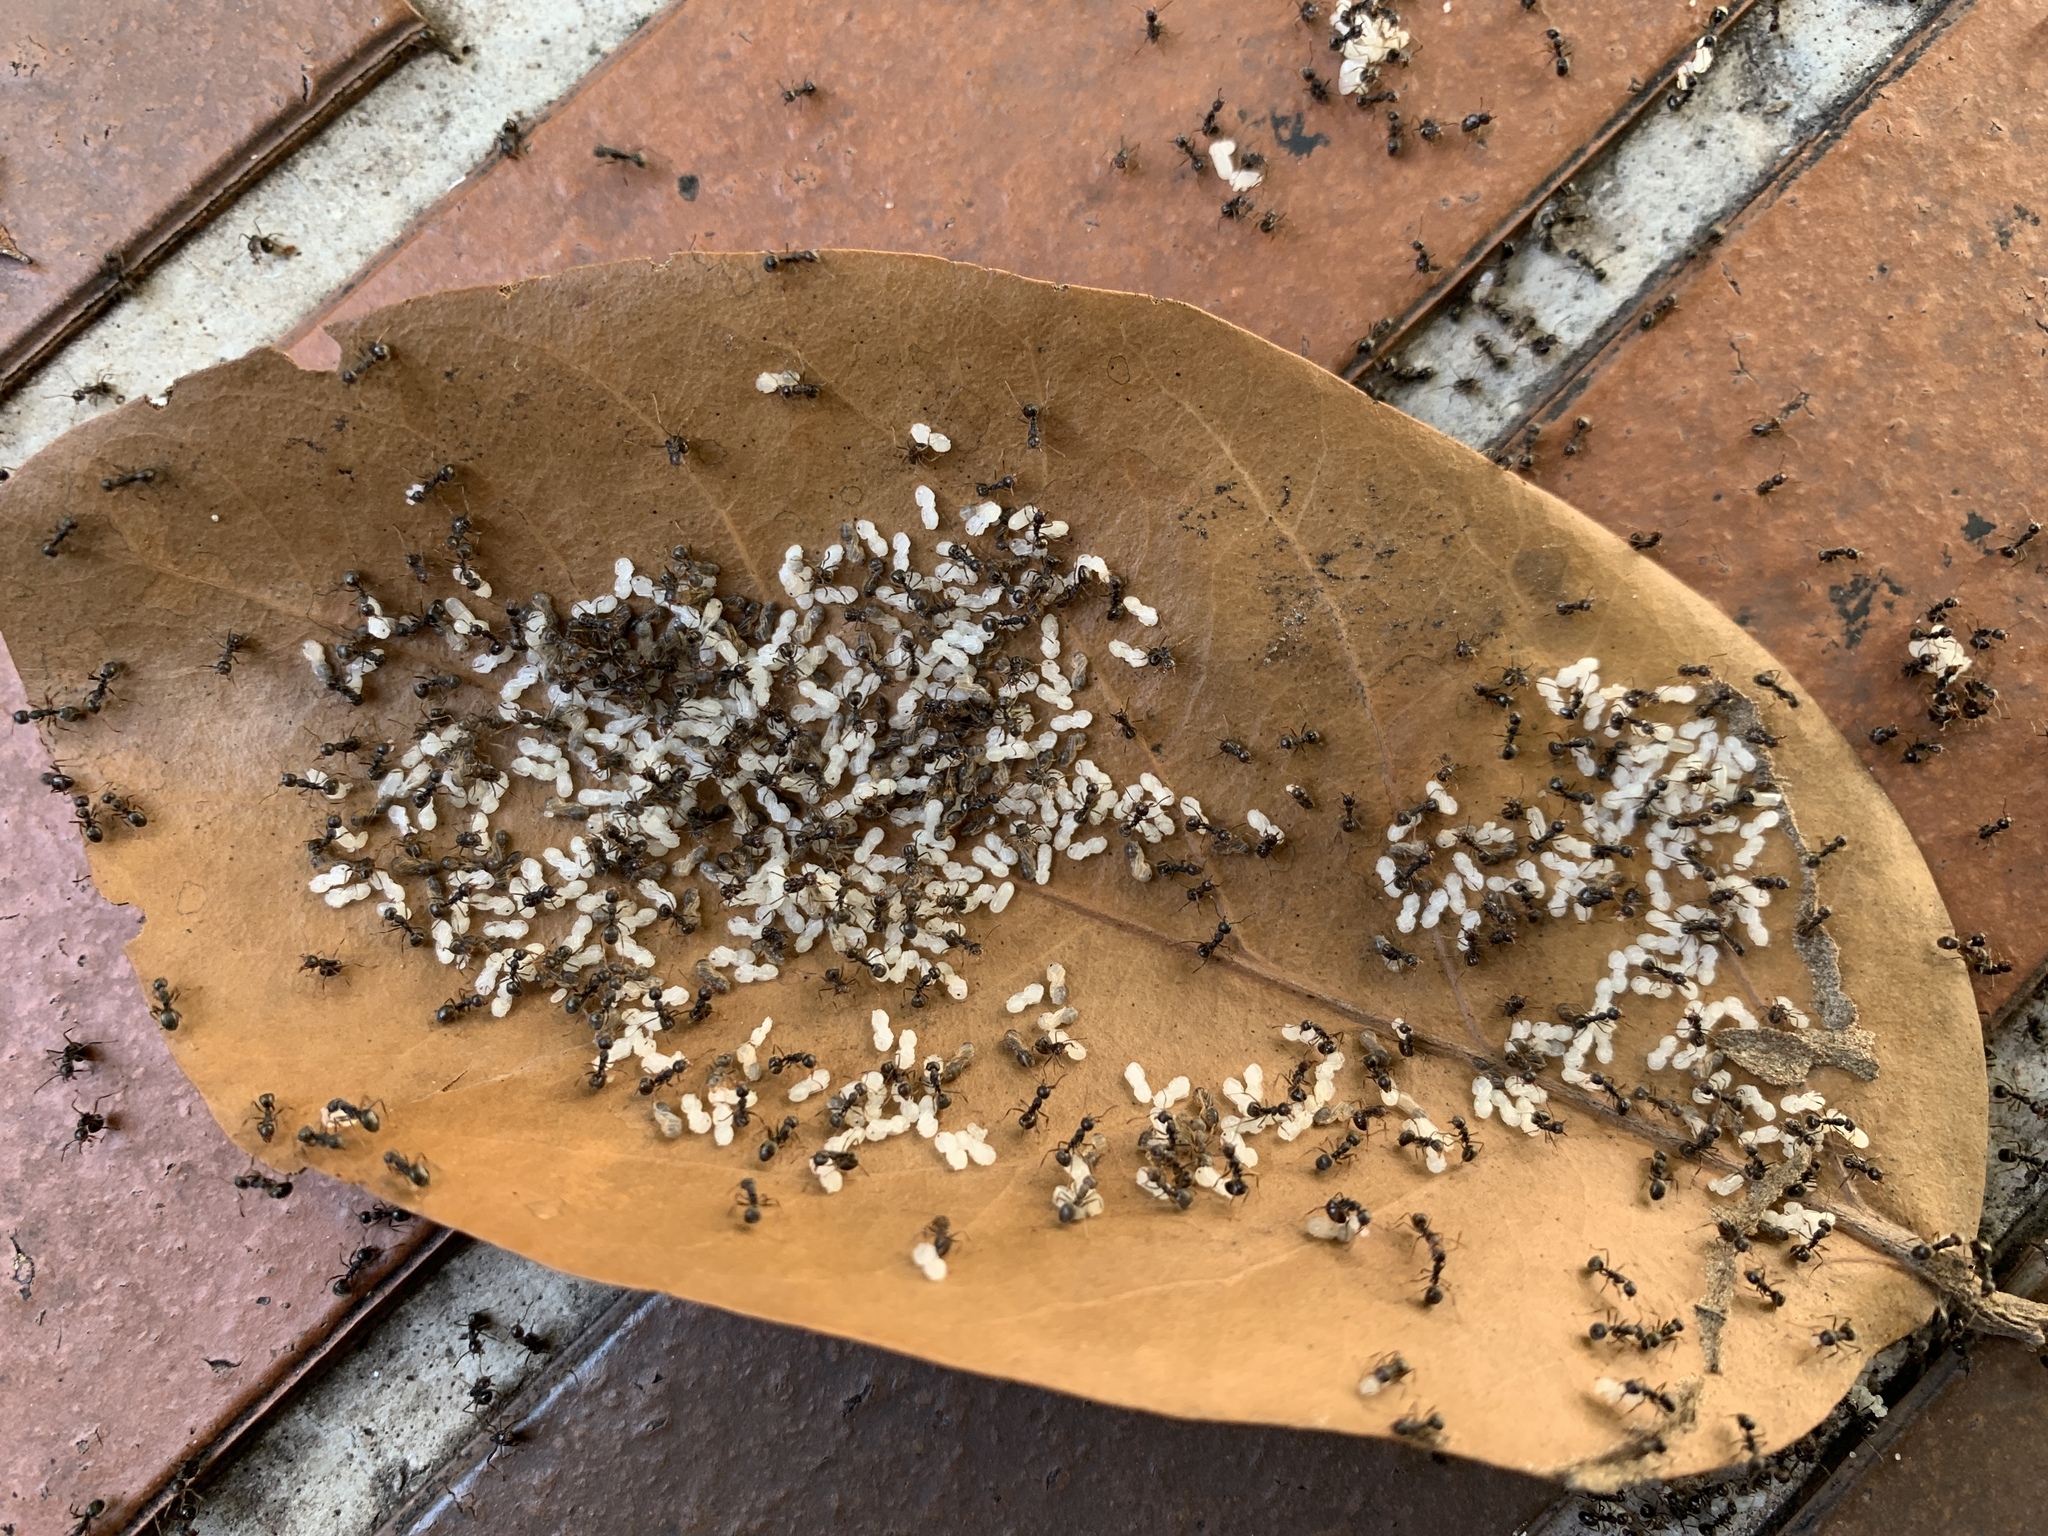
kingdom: Animalia
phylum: Arthropoda
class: Insecta
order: Hymenoptera
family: Formicidae
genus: Dolichoderus
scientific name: Dolichoderus thoracicus
